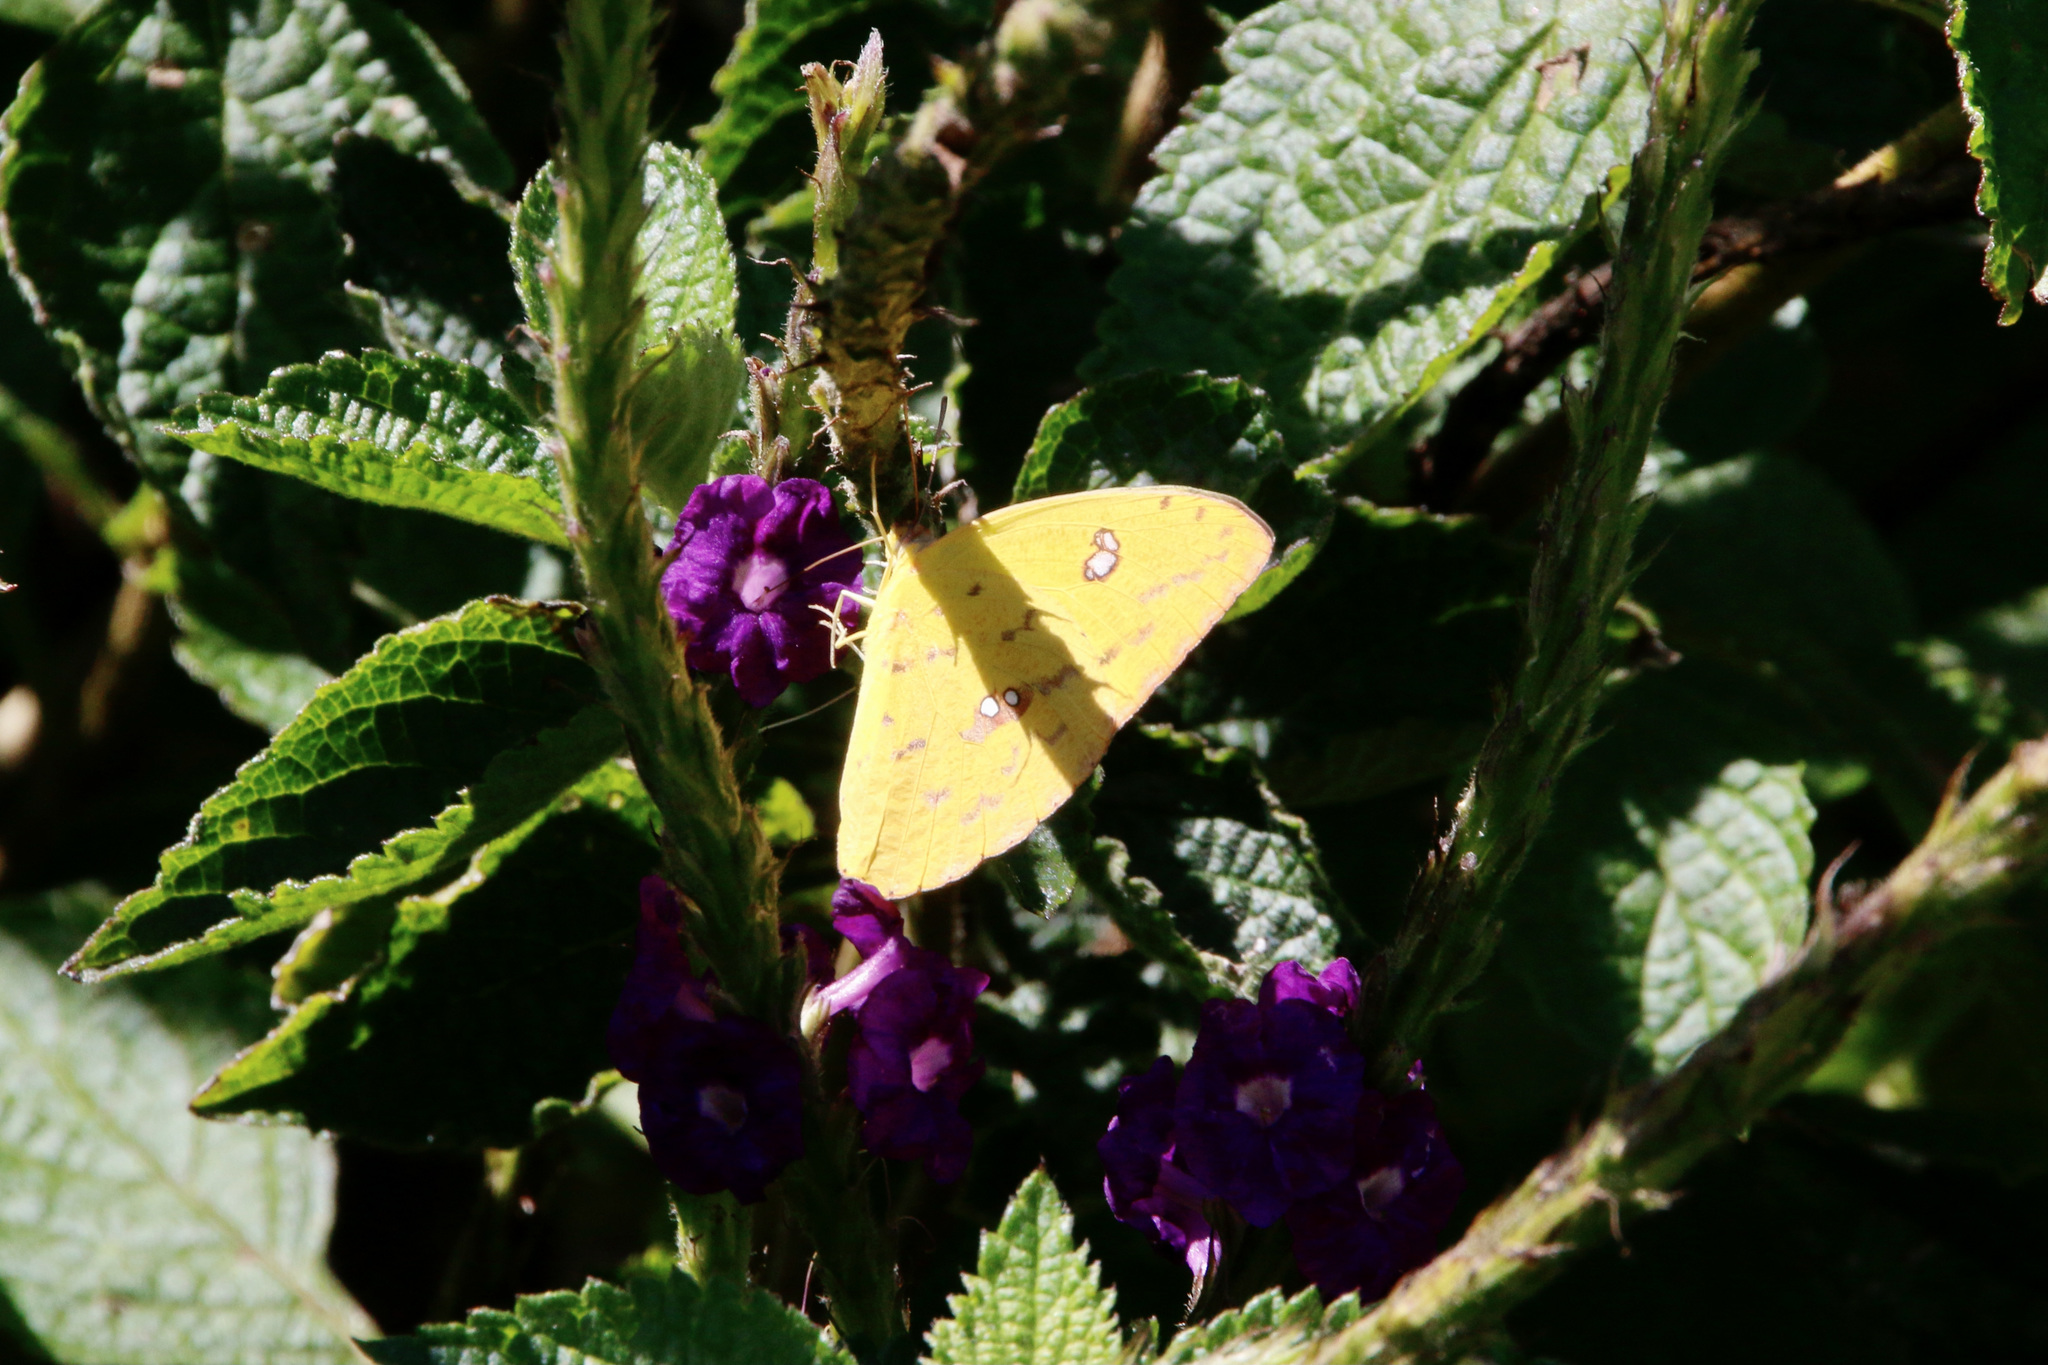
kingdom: Animalia
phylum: Arthropoda
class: Insecta
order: Lepidoptera
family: Pieridae
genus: Phoebis
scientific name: Phoebis argante
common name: Apricot sulphur
